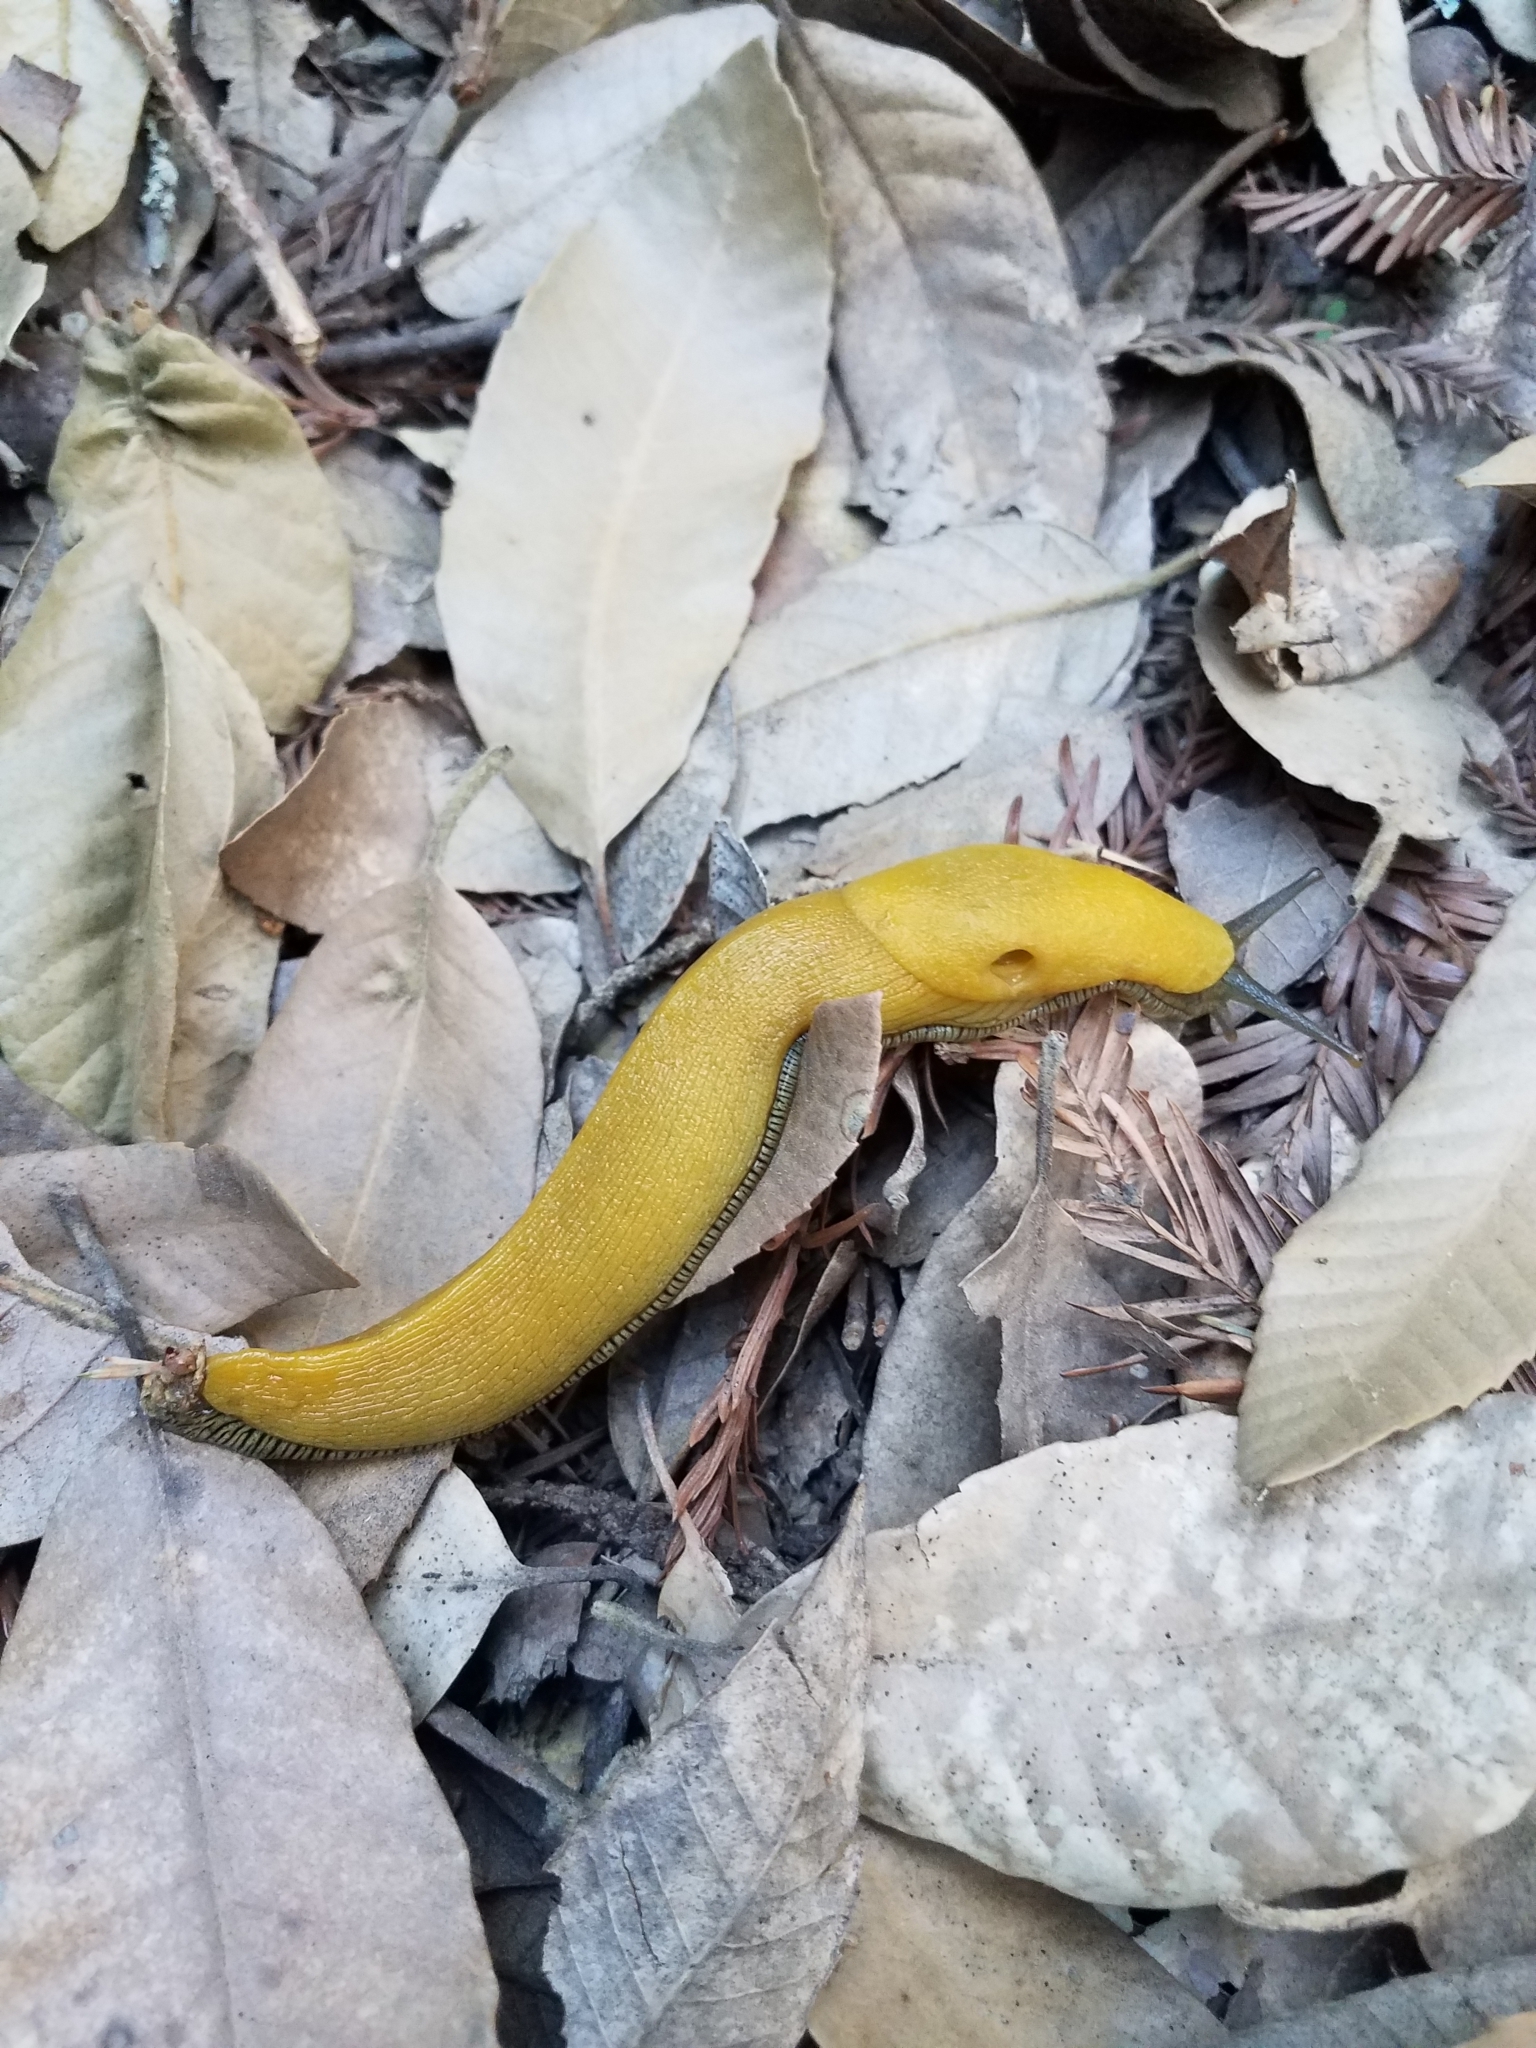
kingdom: Animalia
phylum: Mollusca
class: Gastropoda
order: Stylommatophora
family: Ariolimacidae
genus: Ariolimax
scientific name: Ariolimax dolichophallus
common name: Slender banana slug
